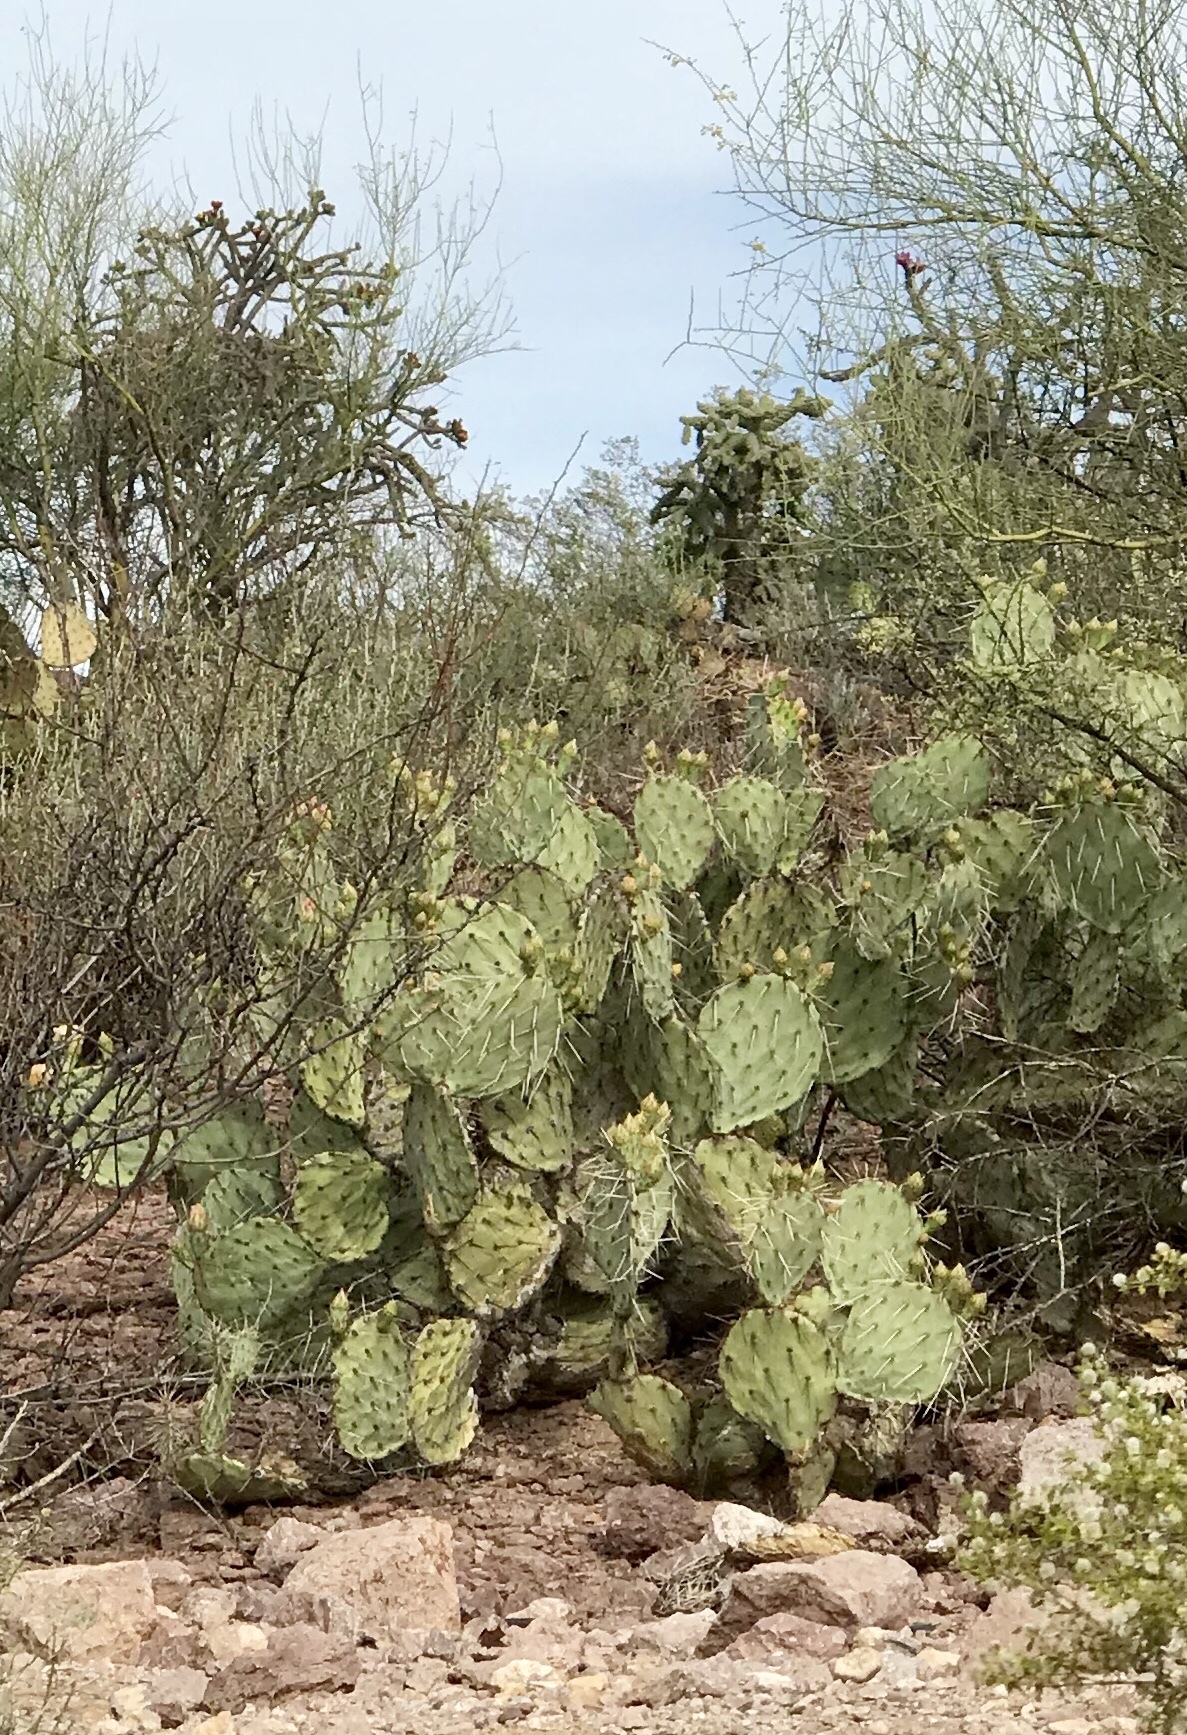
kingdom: Plantae
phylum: Tracheophyta
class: Magnoliopsida
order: Caryophyllales
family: Cactaceae
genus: Opuntia
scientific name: Opuntia phaeacantha
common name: New mexico prickly-pear
